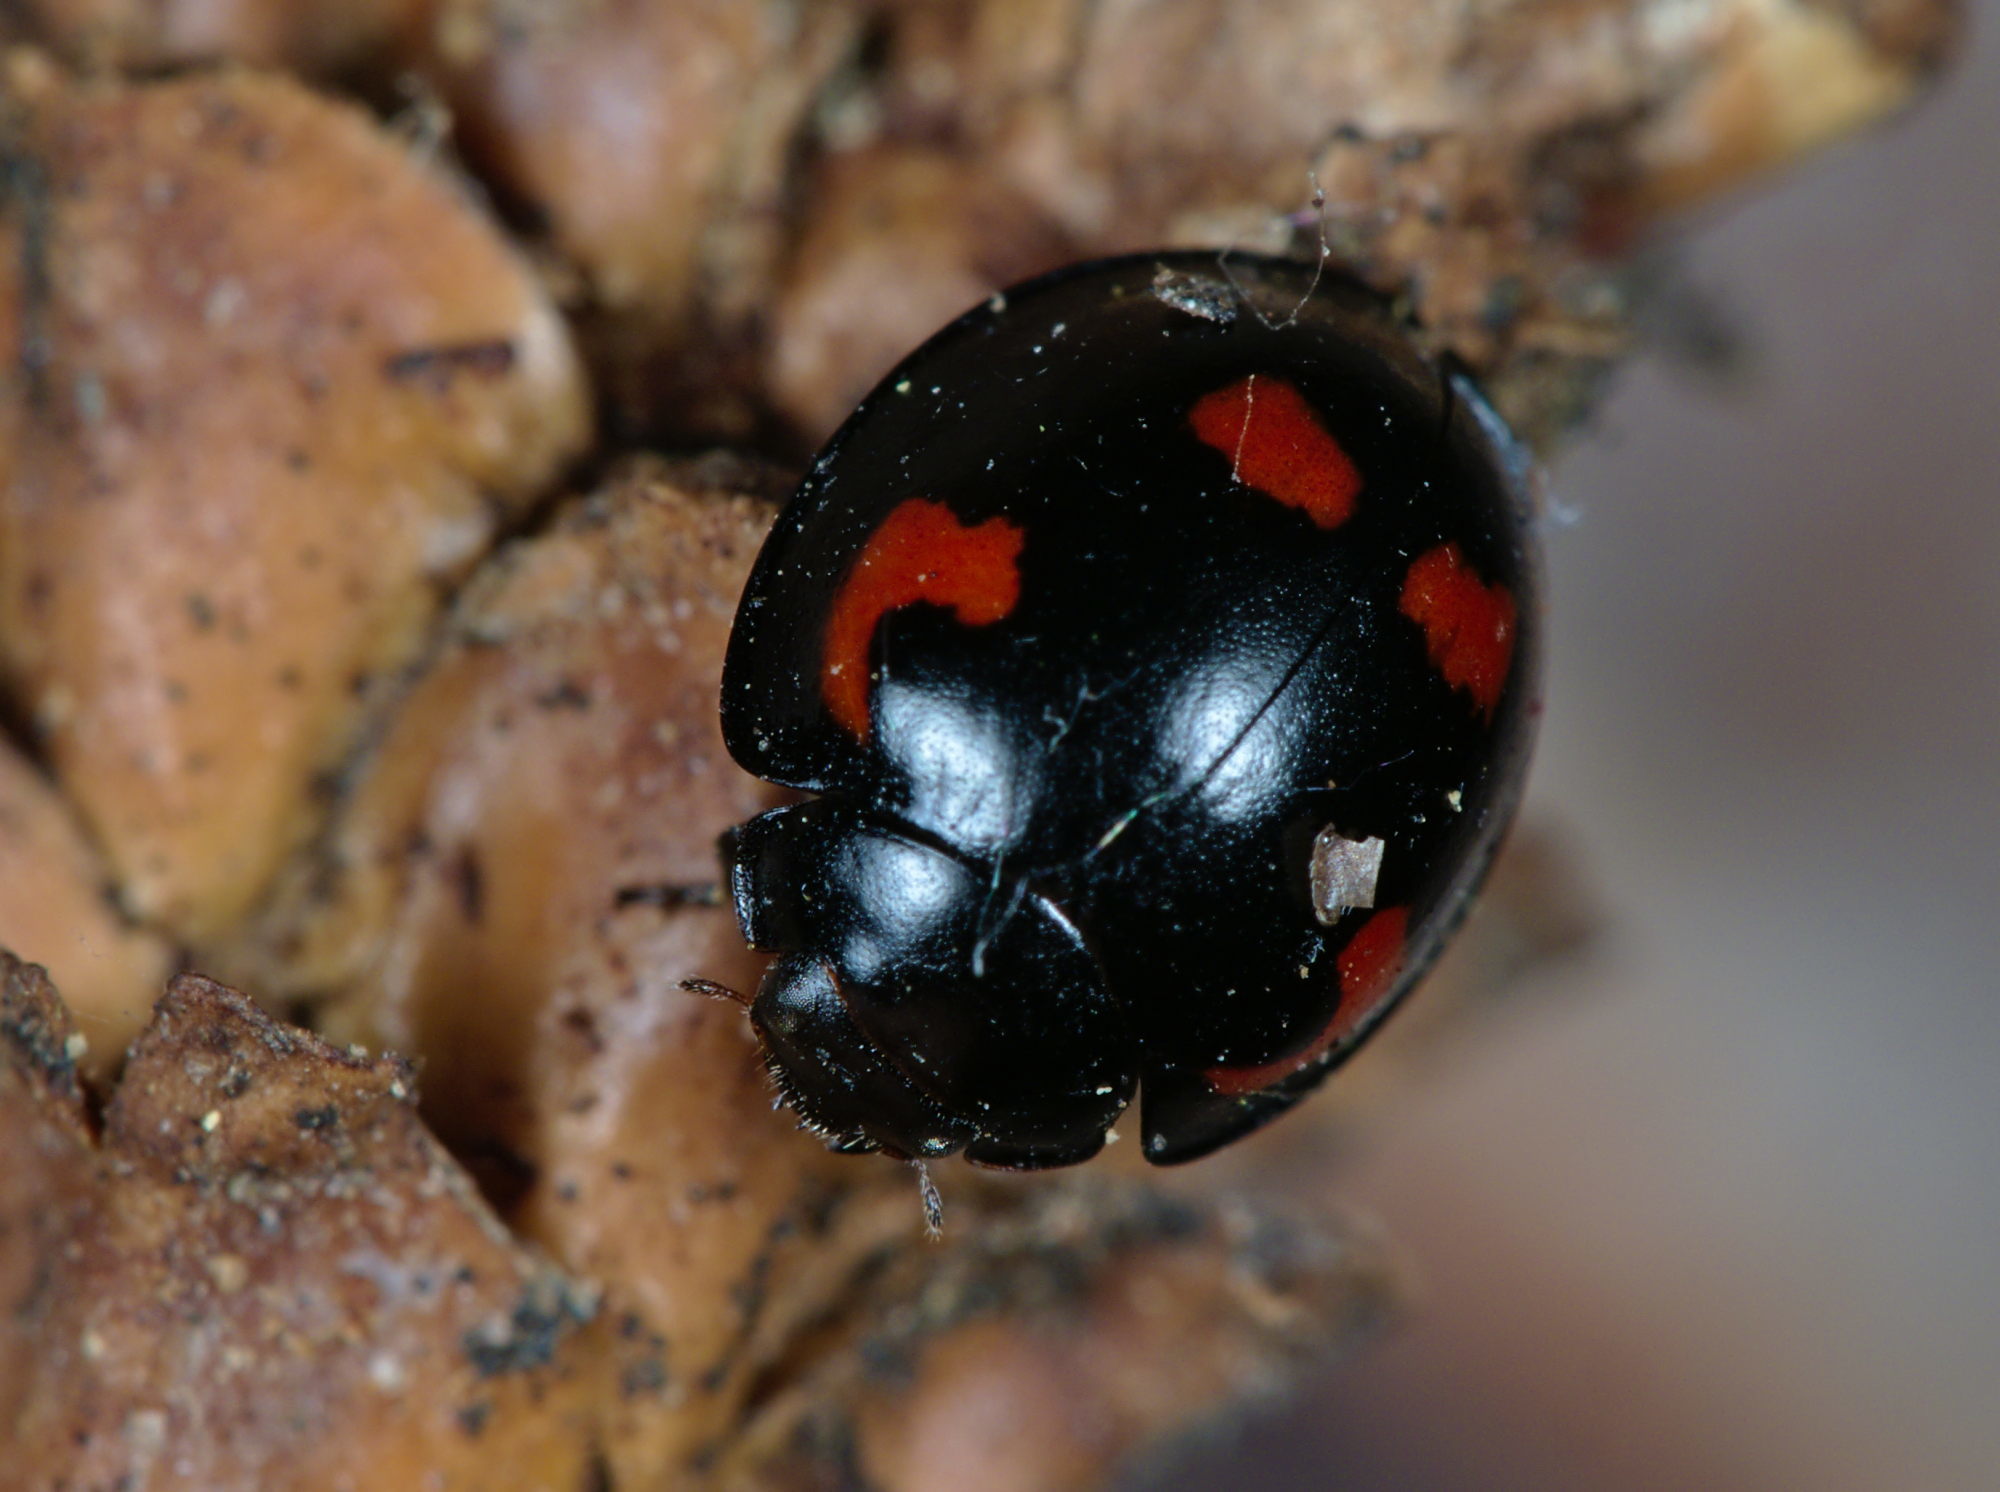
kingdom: Animalia
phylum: Arthropoda
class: Insecta
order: Coleoptera
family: Coccinellidae
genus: Brumus
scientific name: Brumus quadripustulatus
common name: Ladybird beetle
